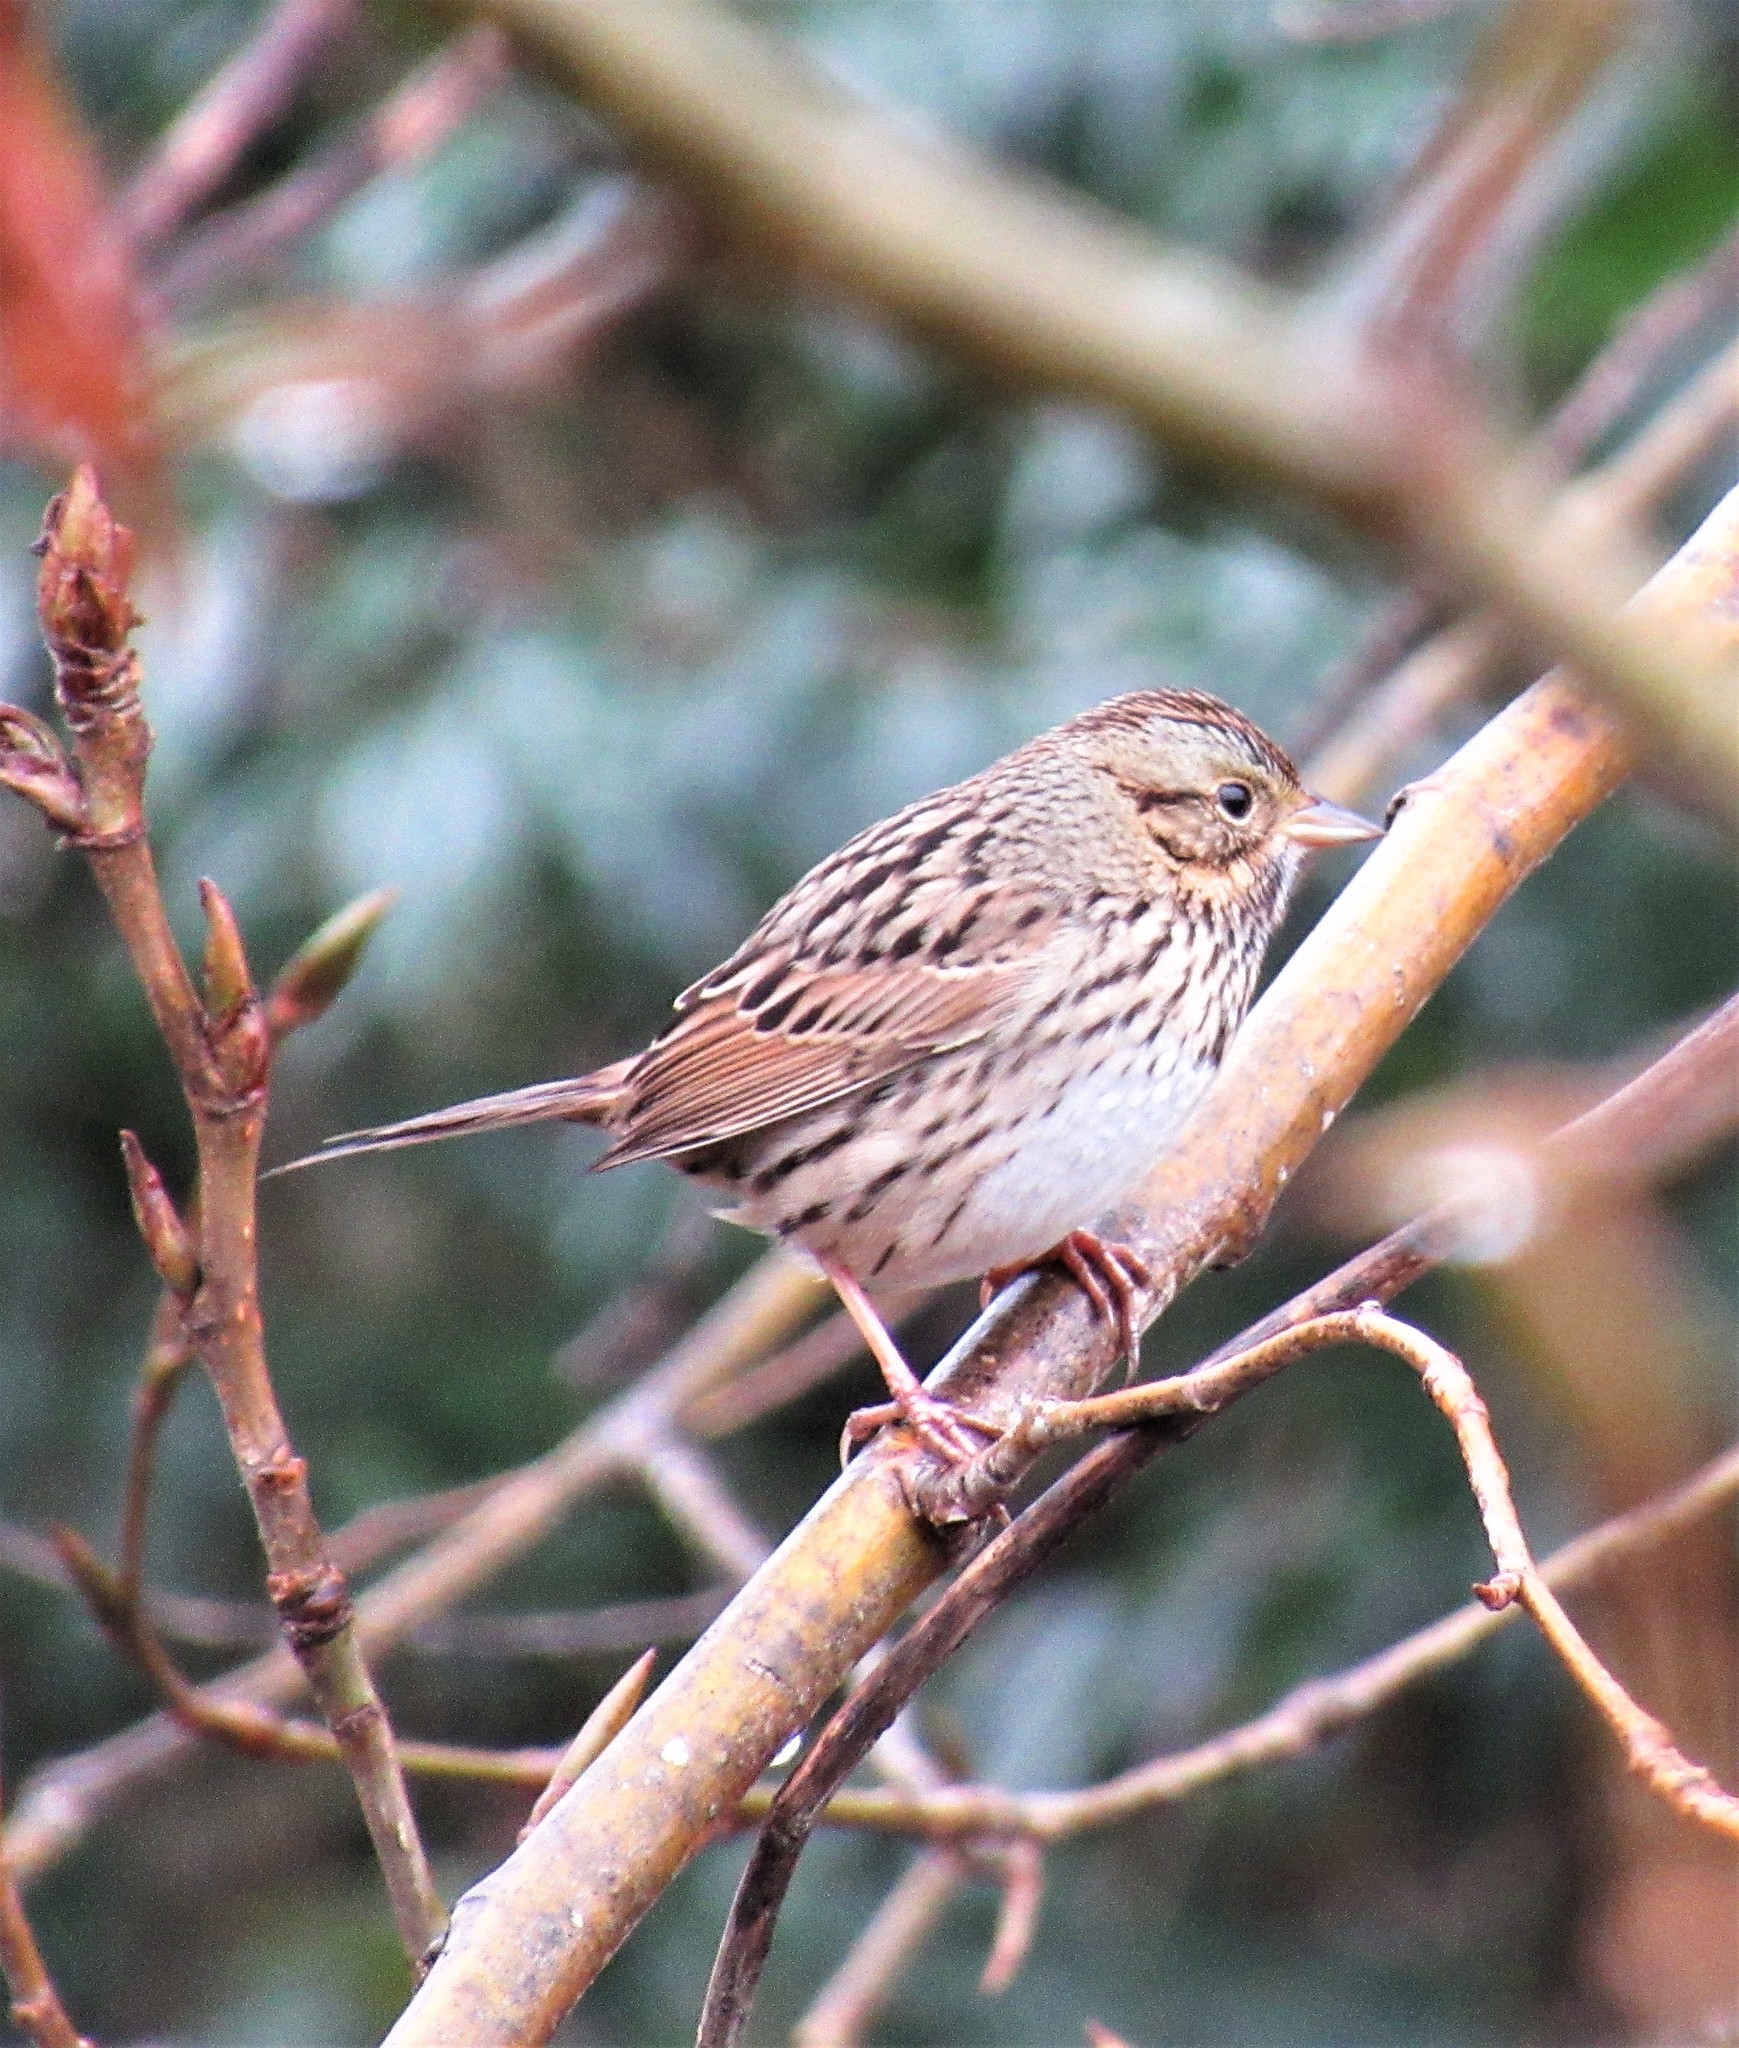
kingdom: Animalia
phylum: Chordata
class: Aves
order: Passeriformes
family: Passerellidae
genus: Melospiza
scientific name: Melospiza lincolnii
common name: Lincoln's sparrow
